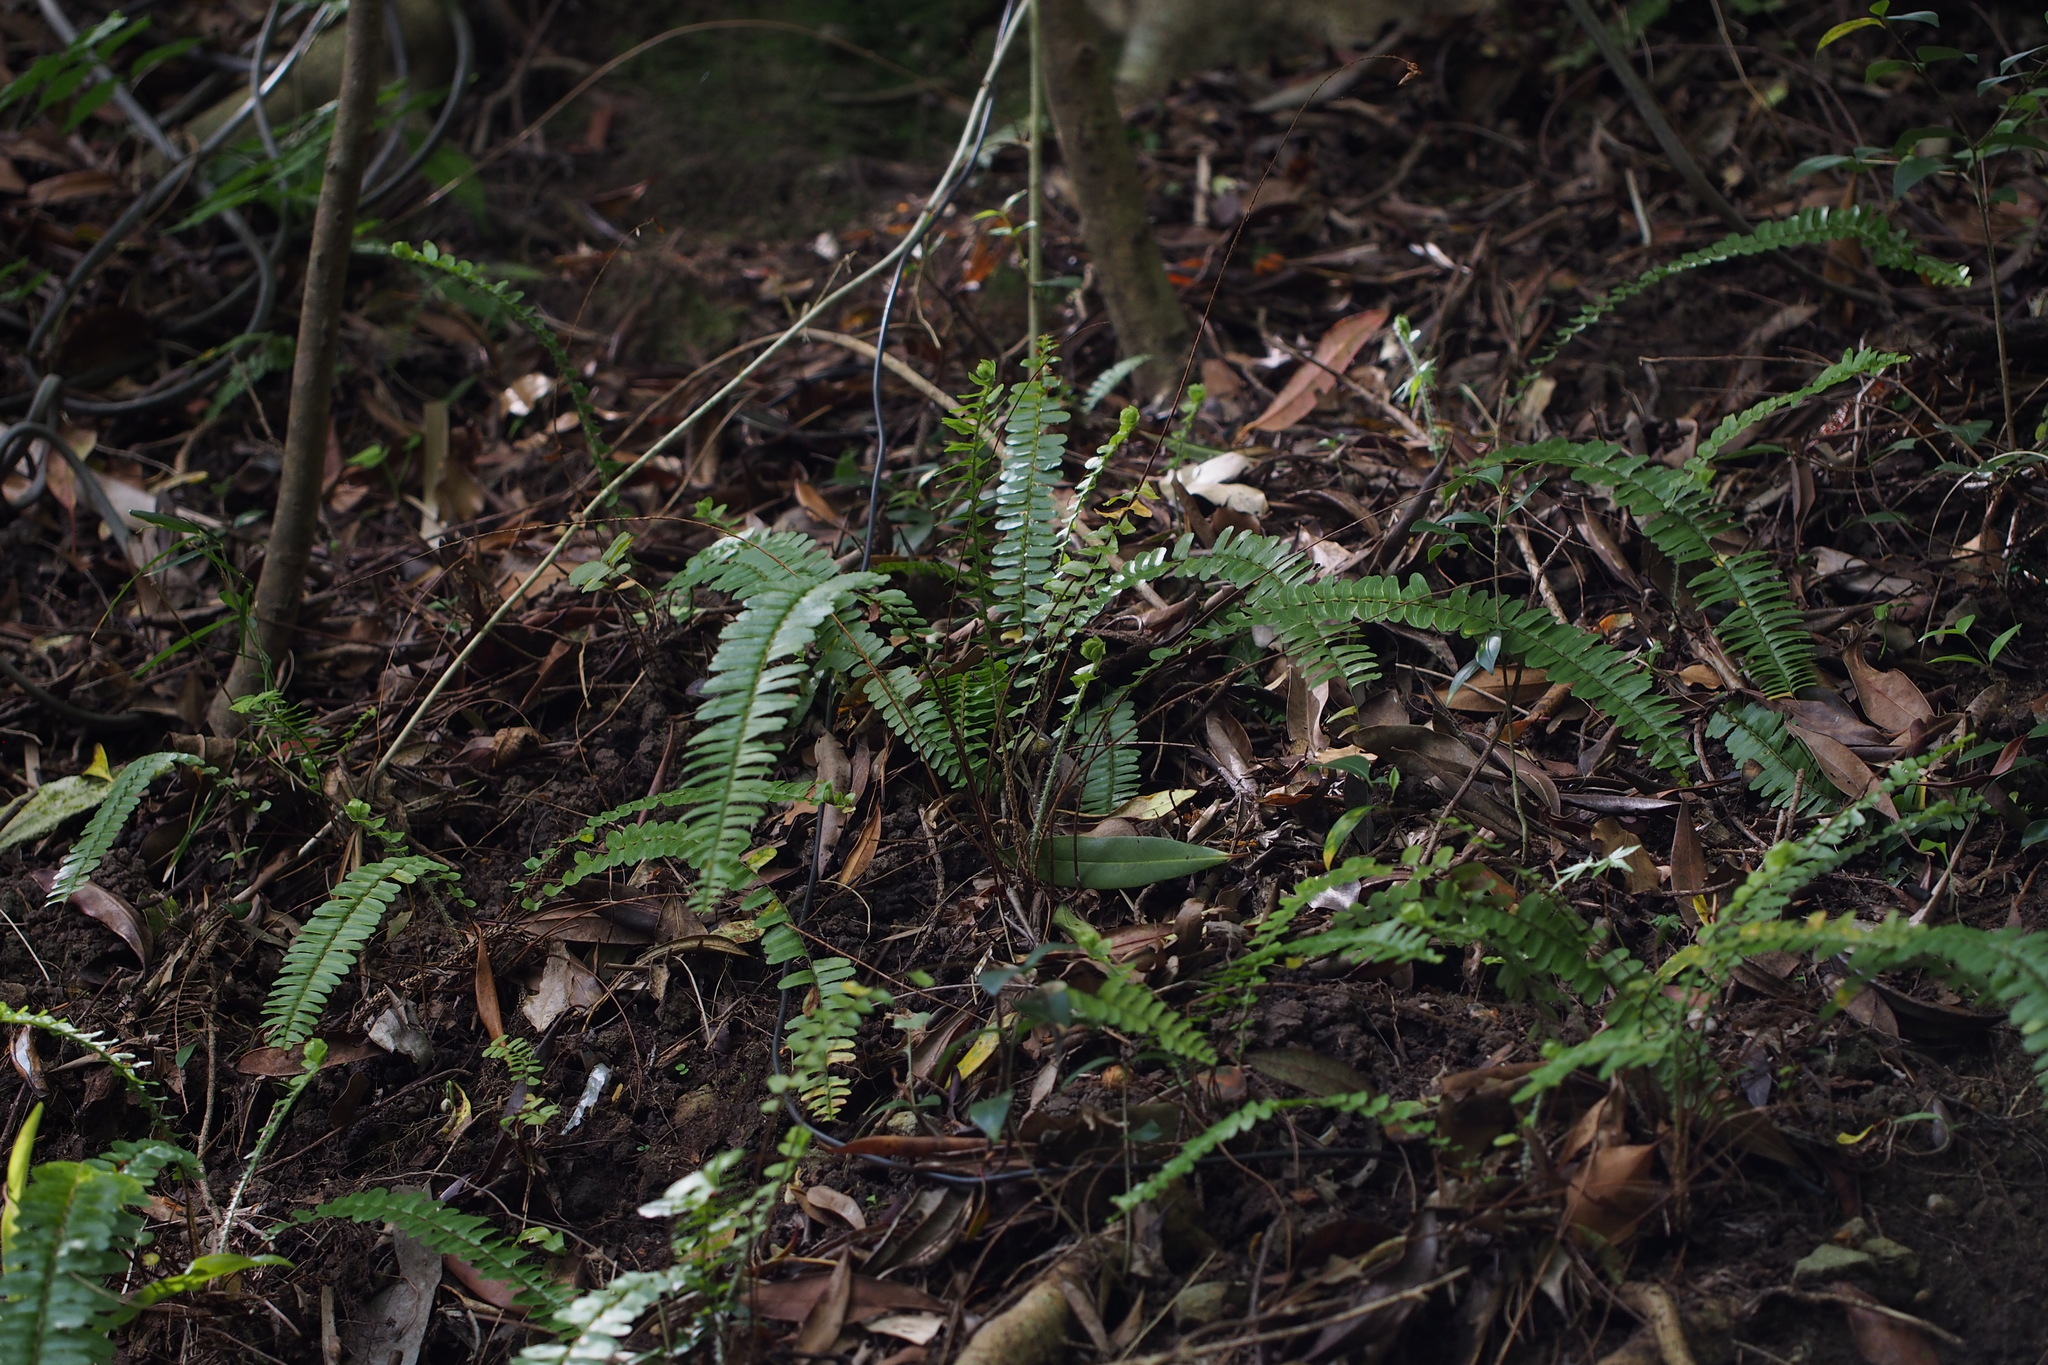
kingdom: Plantae
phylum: Tracheophyta
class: Polypodiopsida
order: Polypodiales
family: Nephrolepidaceae
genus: Nephrolepis
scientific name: Nephrolepis cordifolia
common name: Narrow swordfern
